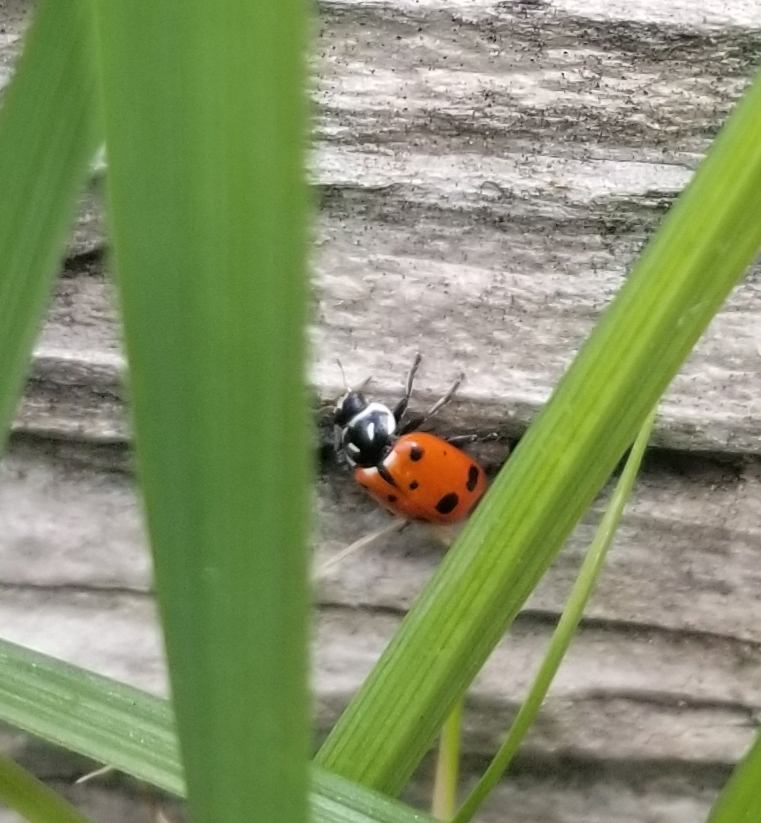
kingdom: Animalia
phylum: Arthropoda
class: Insecta
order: Coleoptera
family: Coccinellidae
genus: Hippodamia
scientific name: Hippodamia convergens
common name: Convergent lady beetle
